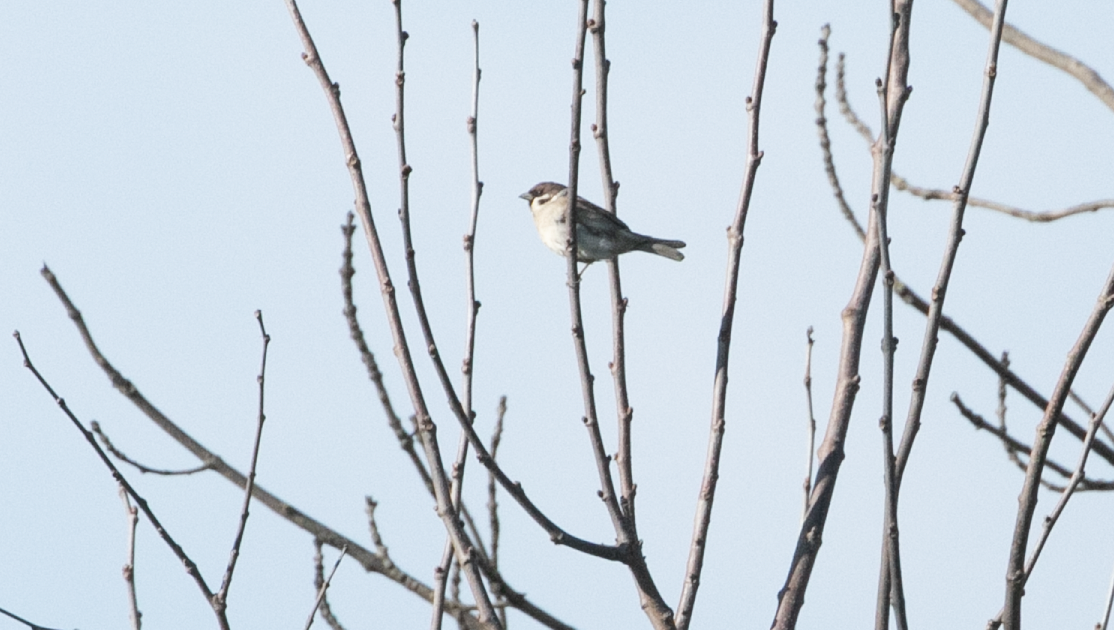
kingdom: Animalia
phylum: Chordata
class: Aves
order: Passeriformes
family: Passeridae
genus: Passer
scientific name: Passer montanus
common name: Eurasian tree sparrow
